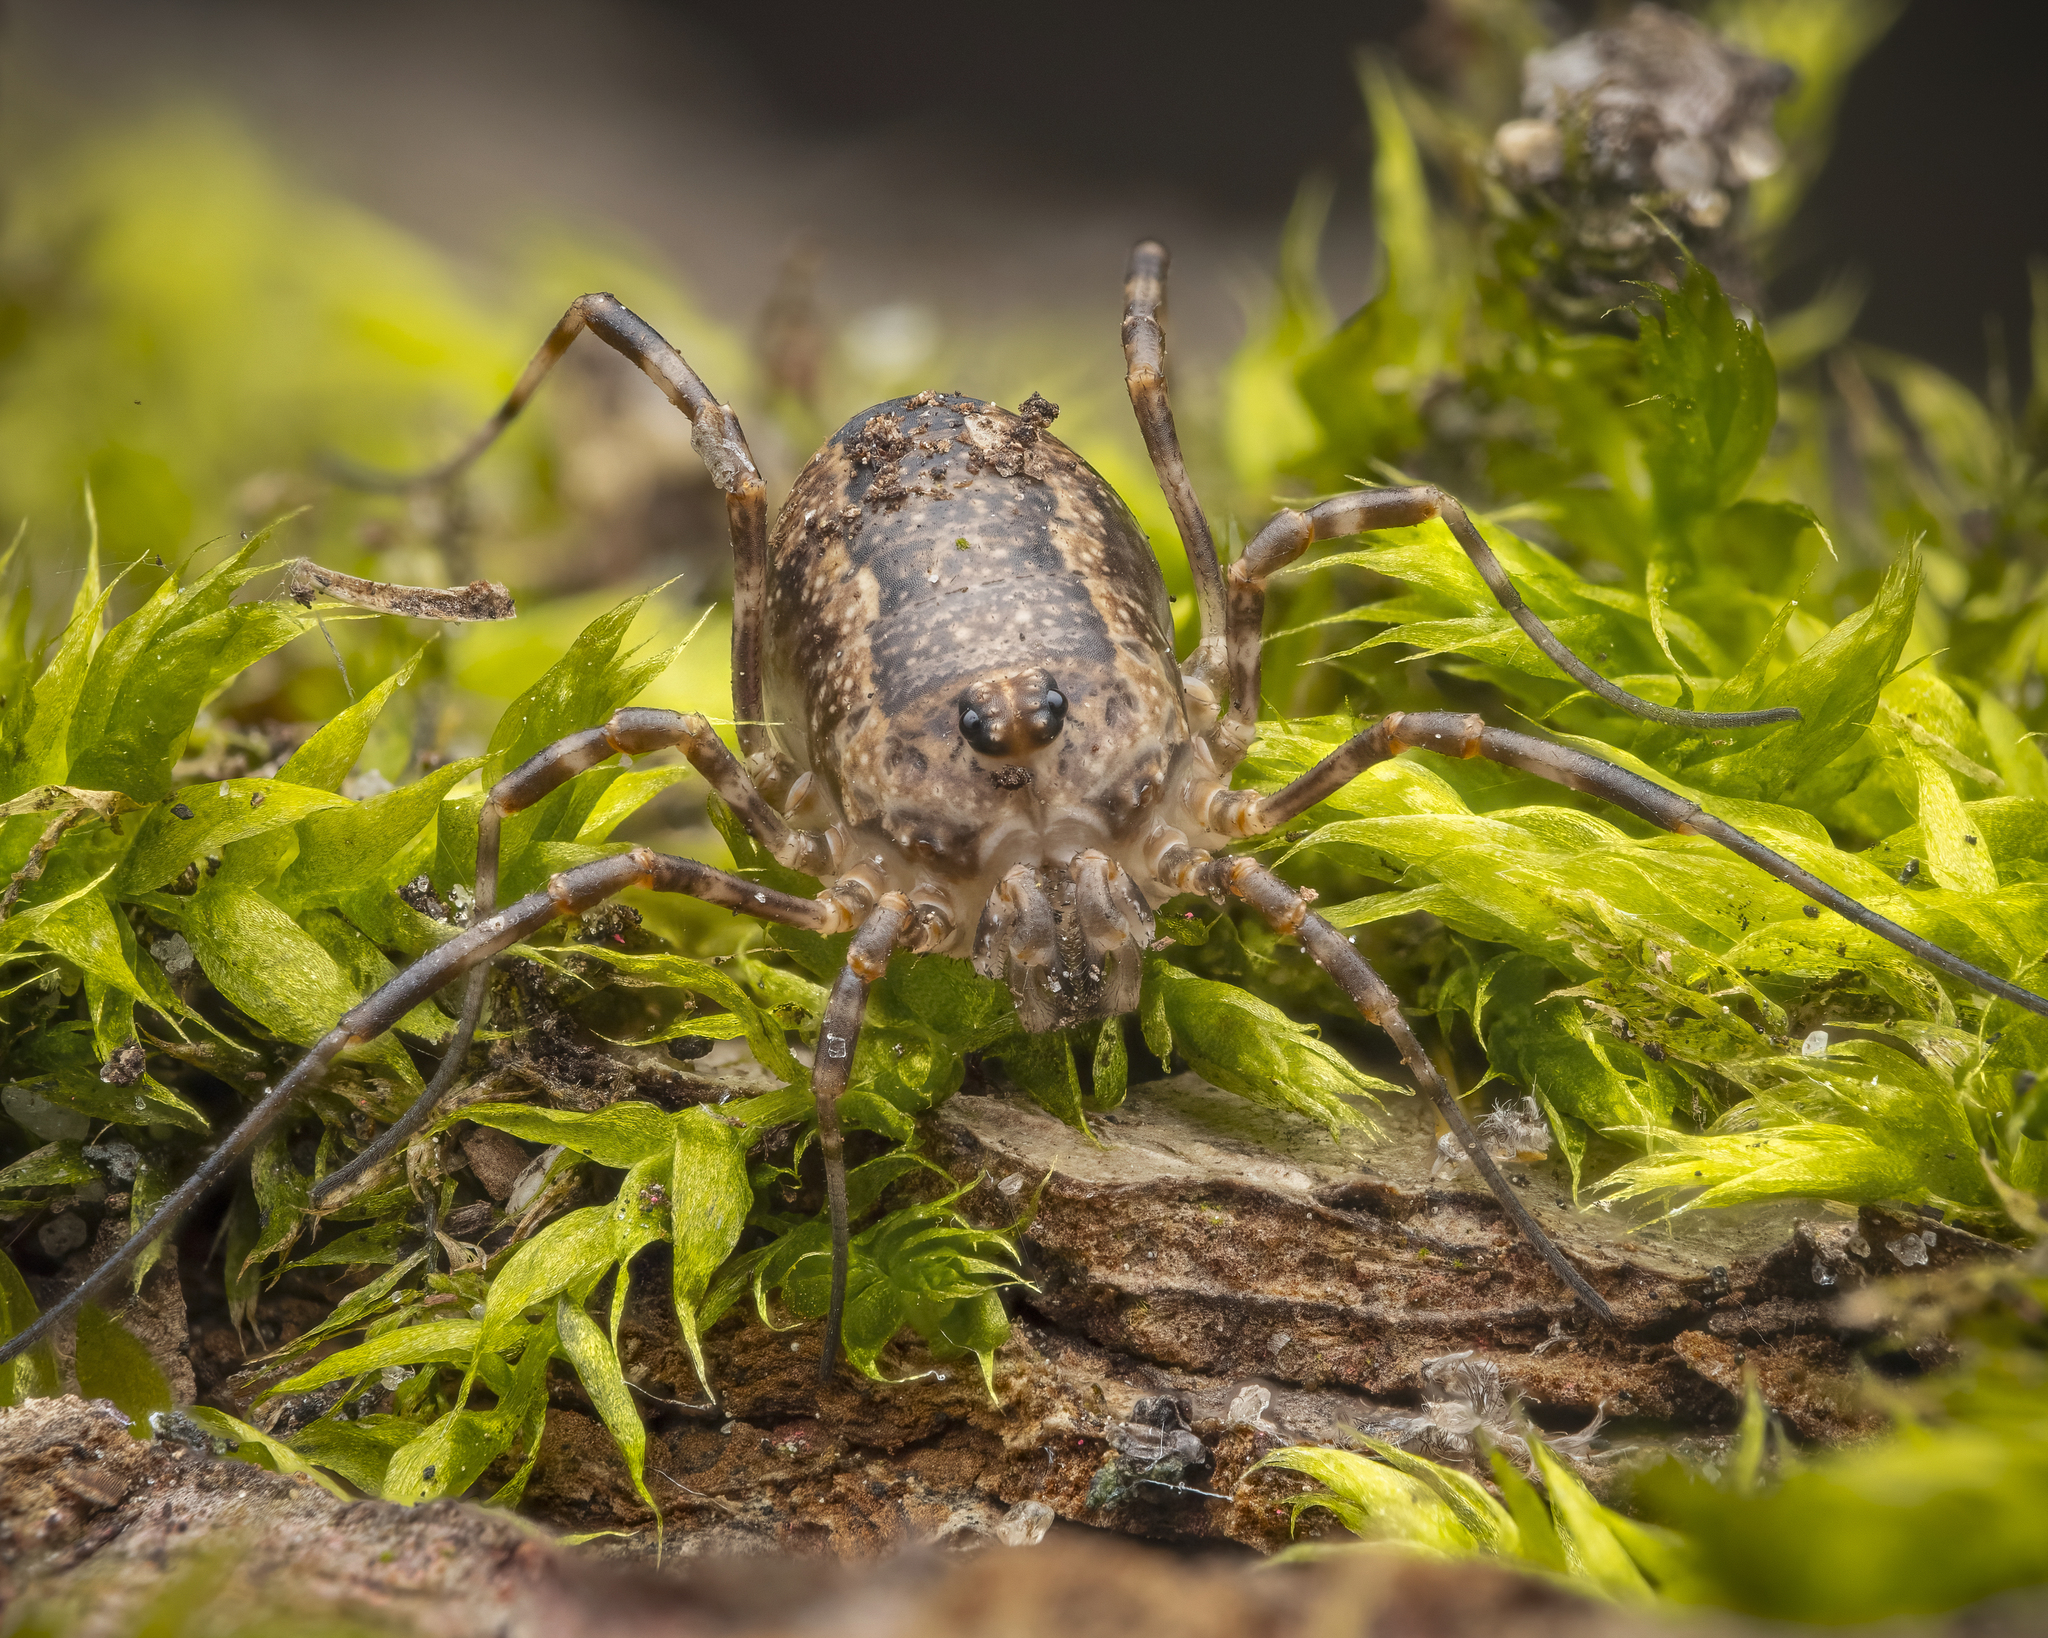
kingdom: Animalia
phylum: Arthropoda
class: Arachnida
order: Opiliones
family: Phalangiidae
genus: Rilaena
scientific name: Rilaena triangularis
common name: Spring harvestman
